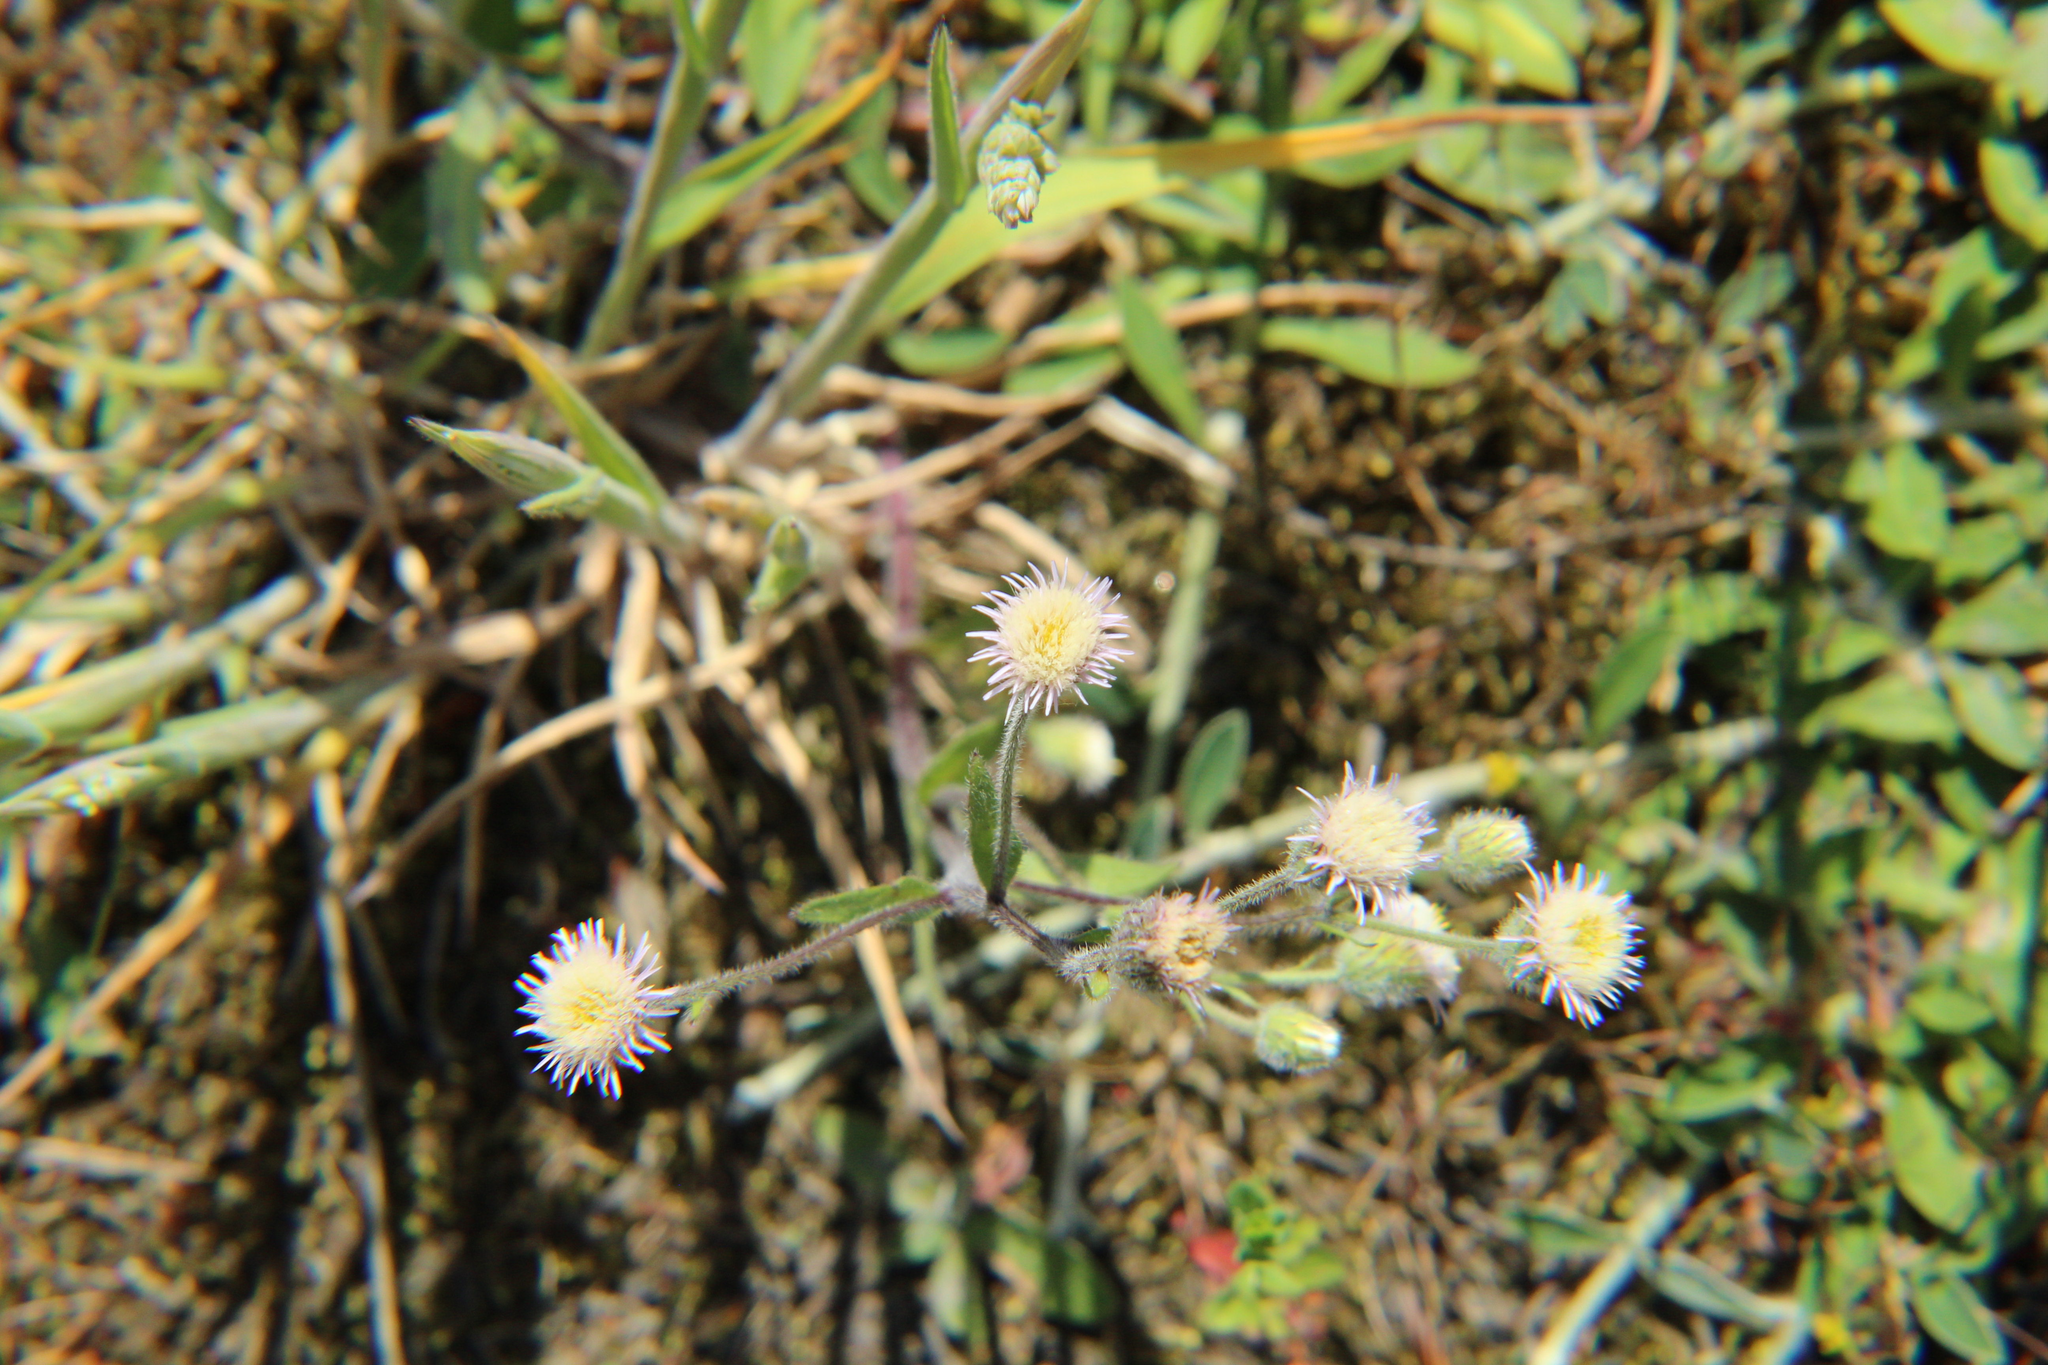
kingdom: Plantae
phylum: Tracheophyta
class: Magnoliopsida
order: Asterales
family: Asteraceae
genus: Erigeron
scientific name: Erigeron acris
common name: Blue fleabane
